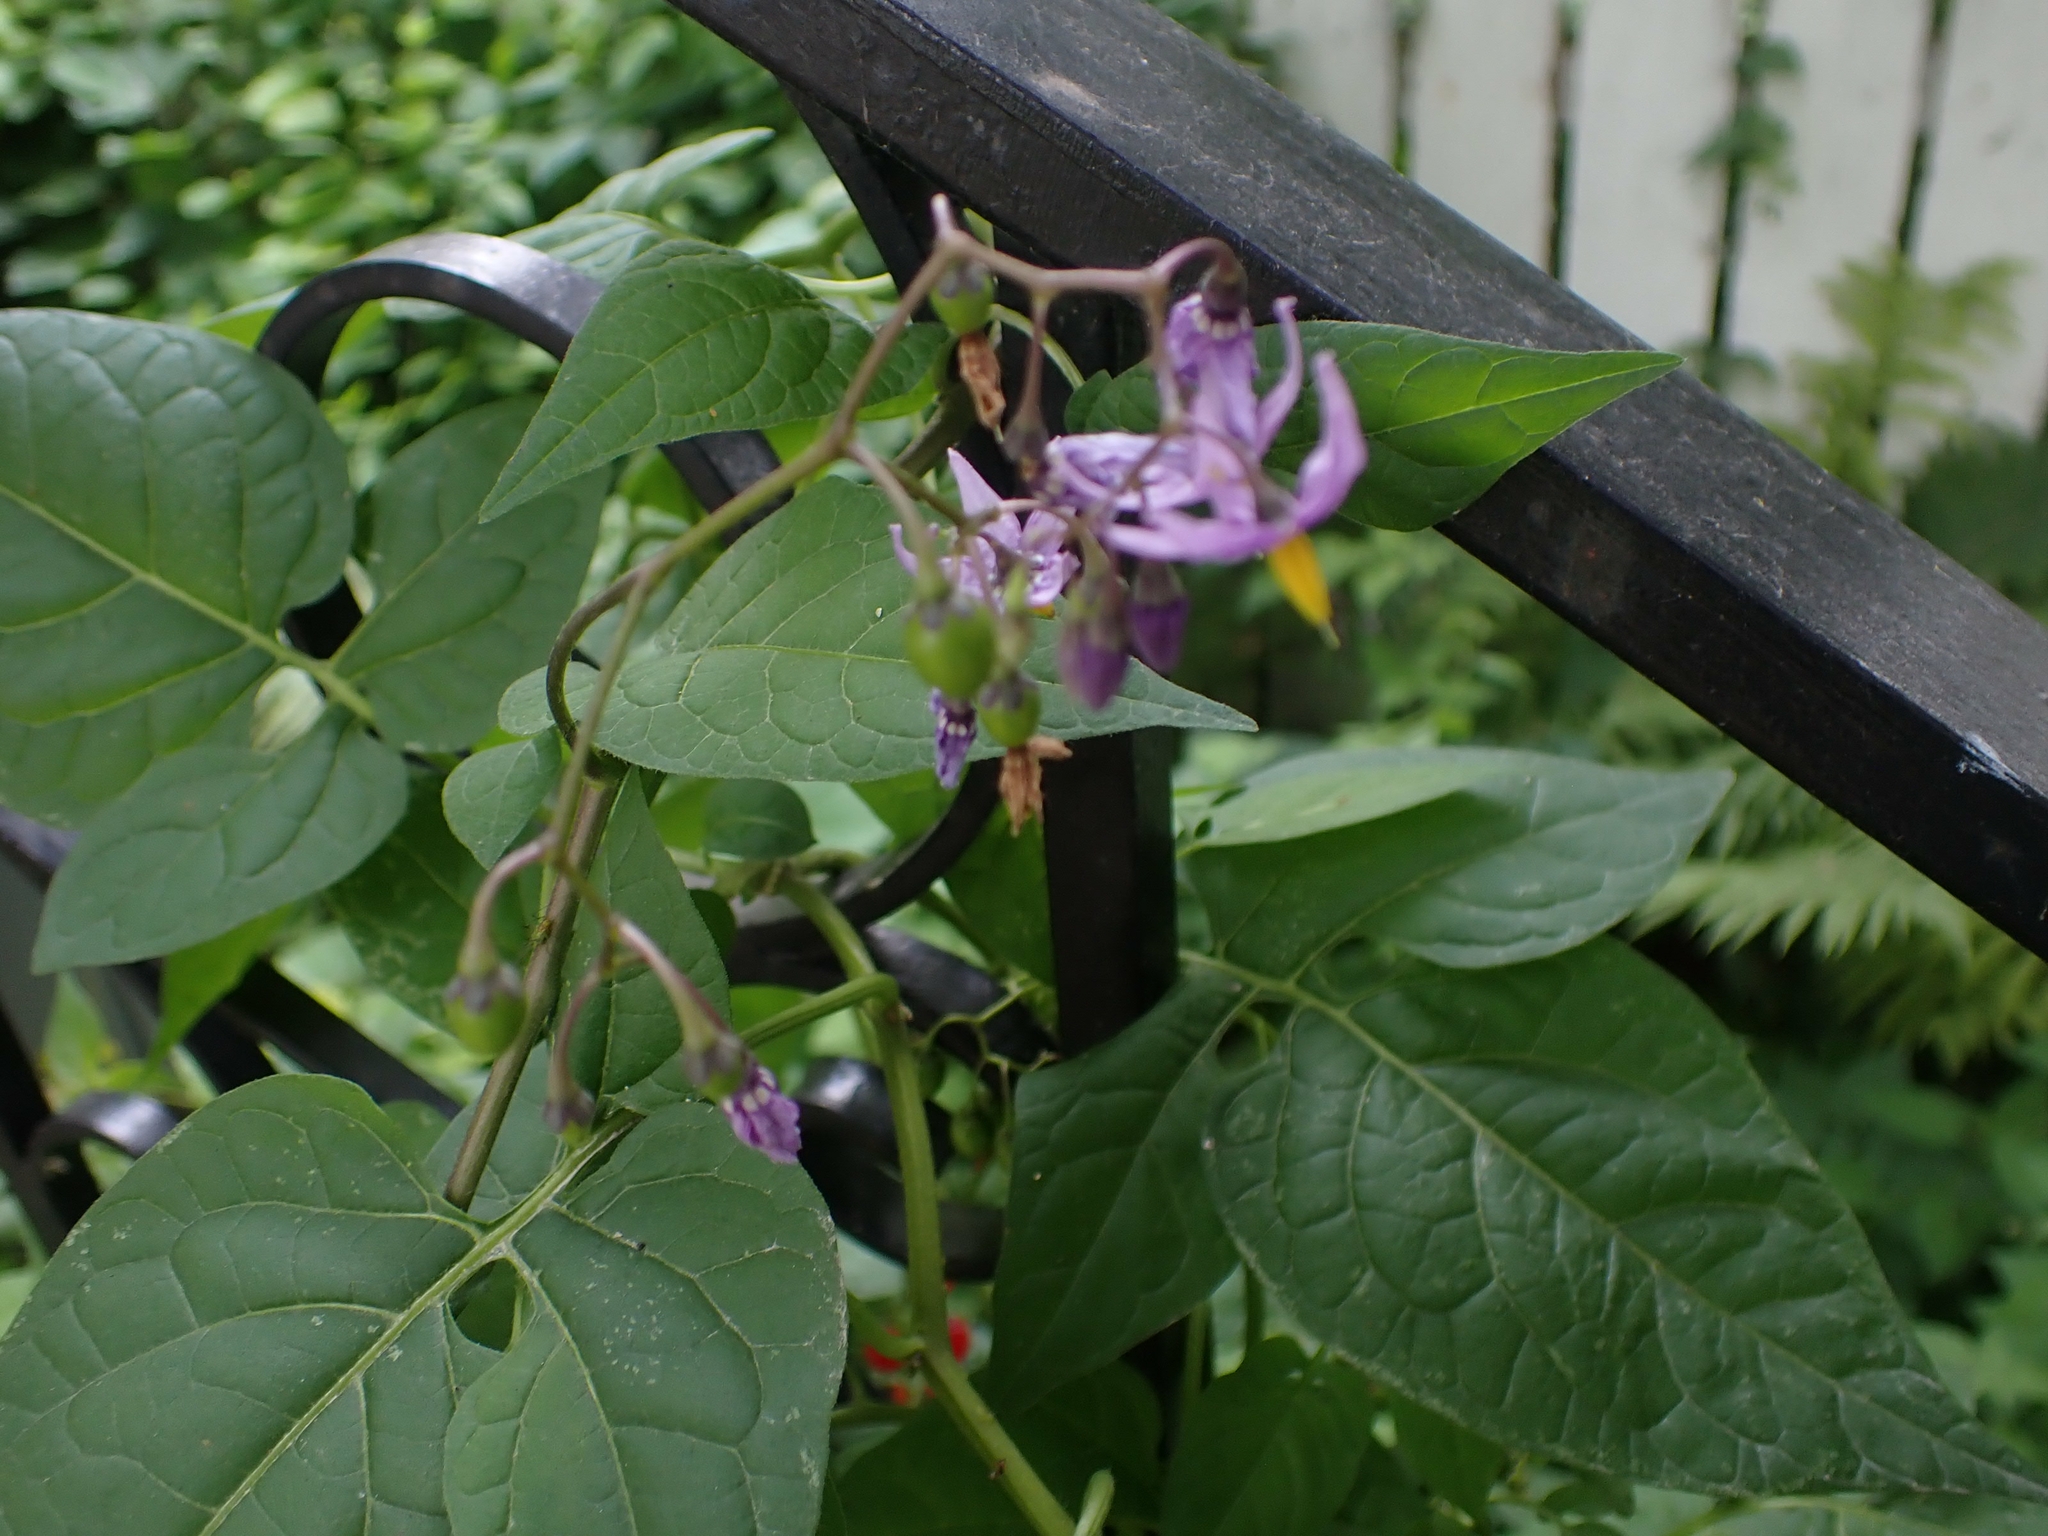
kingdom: Plantae
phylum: Tracheophyta
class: Magnoliopsida
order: Solanales
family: Solanaceae
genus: Solanum
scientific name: Solanum dulcamara
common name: Climbing nightshade
